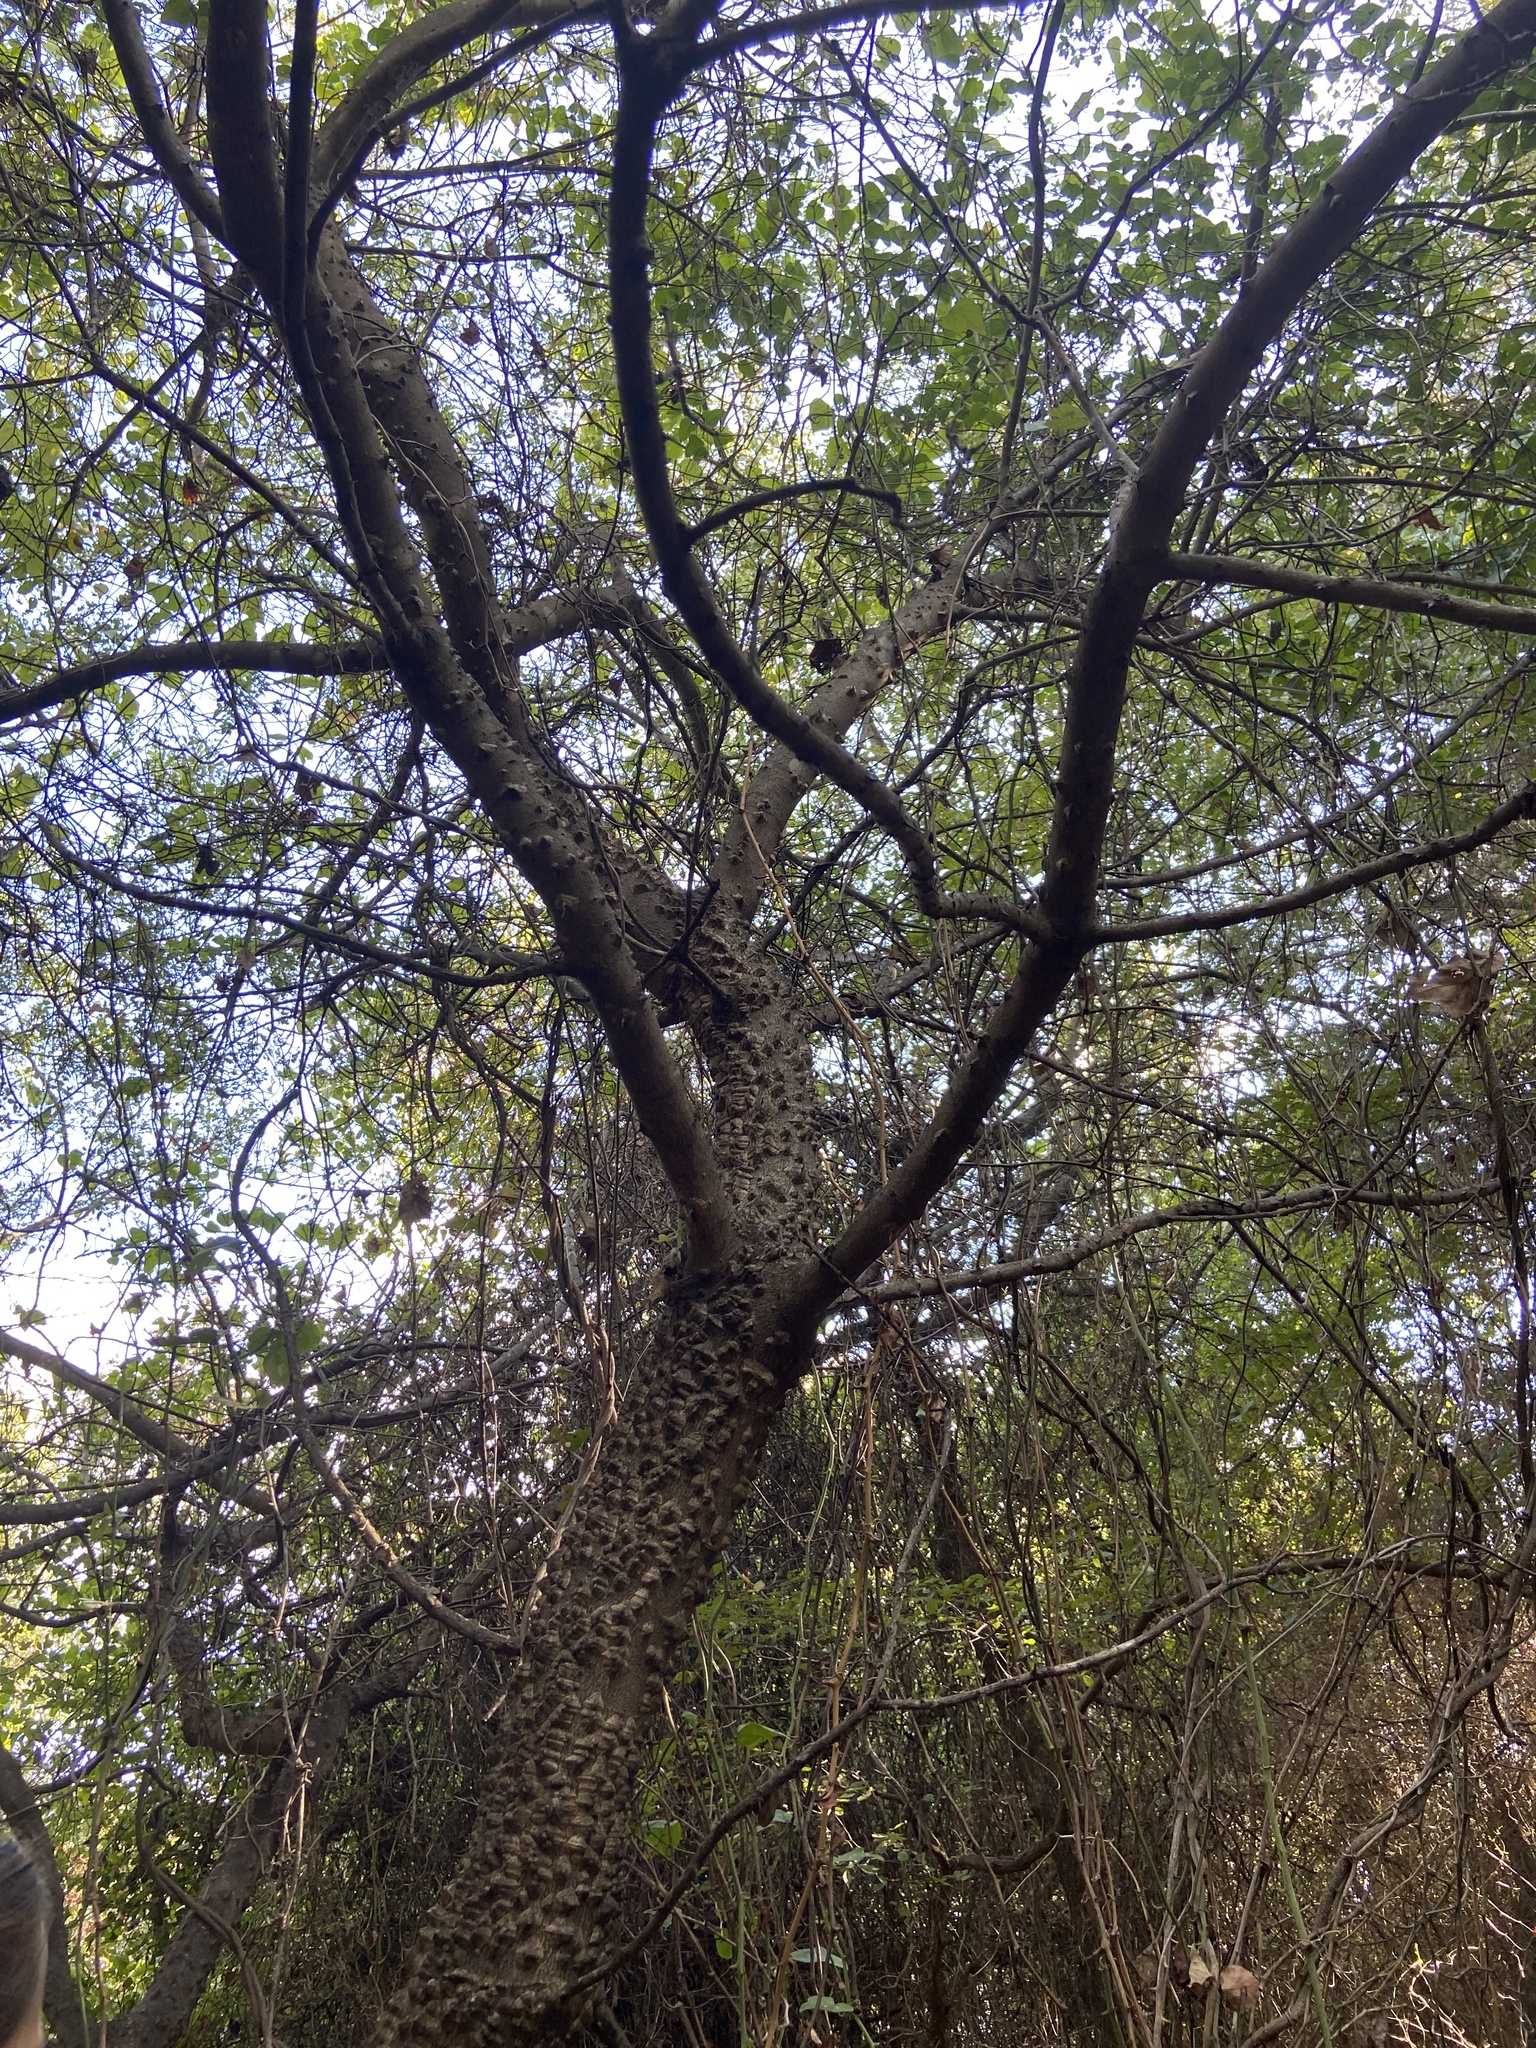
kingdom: Plantae
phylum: Tracheophyta
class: Magnoliopsida
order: Sapindales
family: Rutaceae
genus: Zanthoxylum
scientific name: Zanthoxylum
